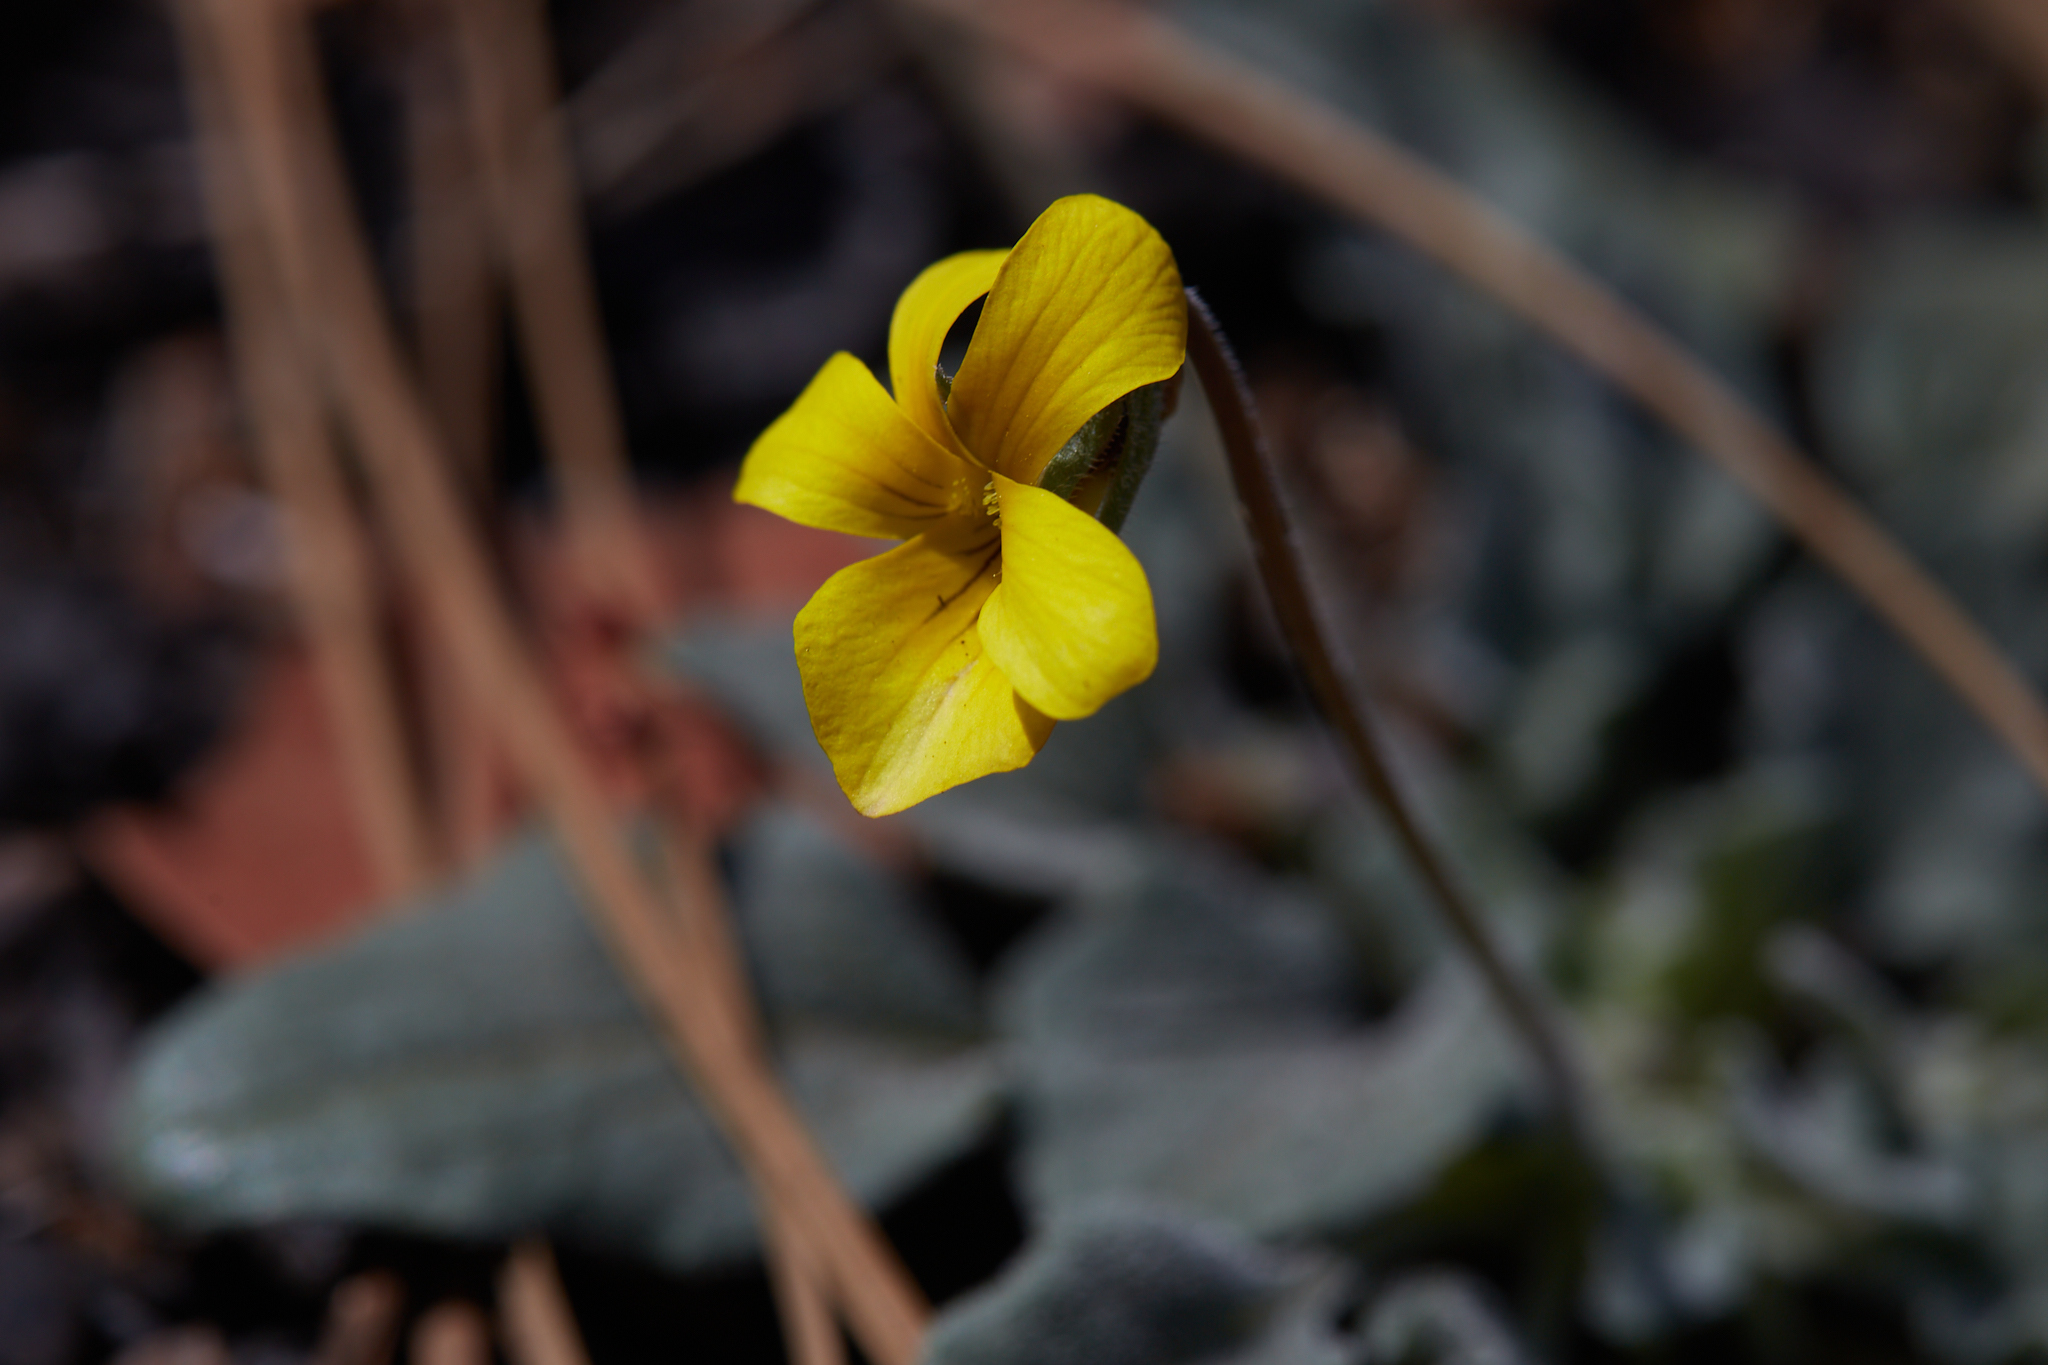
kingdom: Plantae
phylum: Tracheophyta
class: Magnoliopsida
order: Malpighiales
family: Violaceae
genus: Viola
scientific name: Viola purpurea
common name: Pine violet
